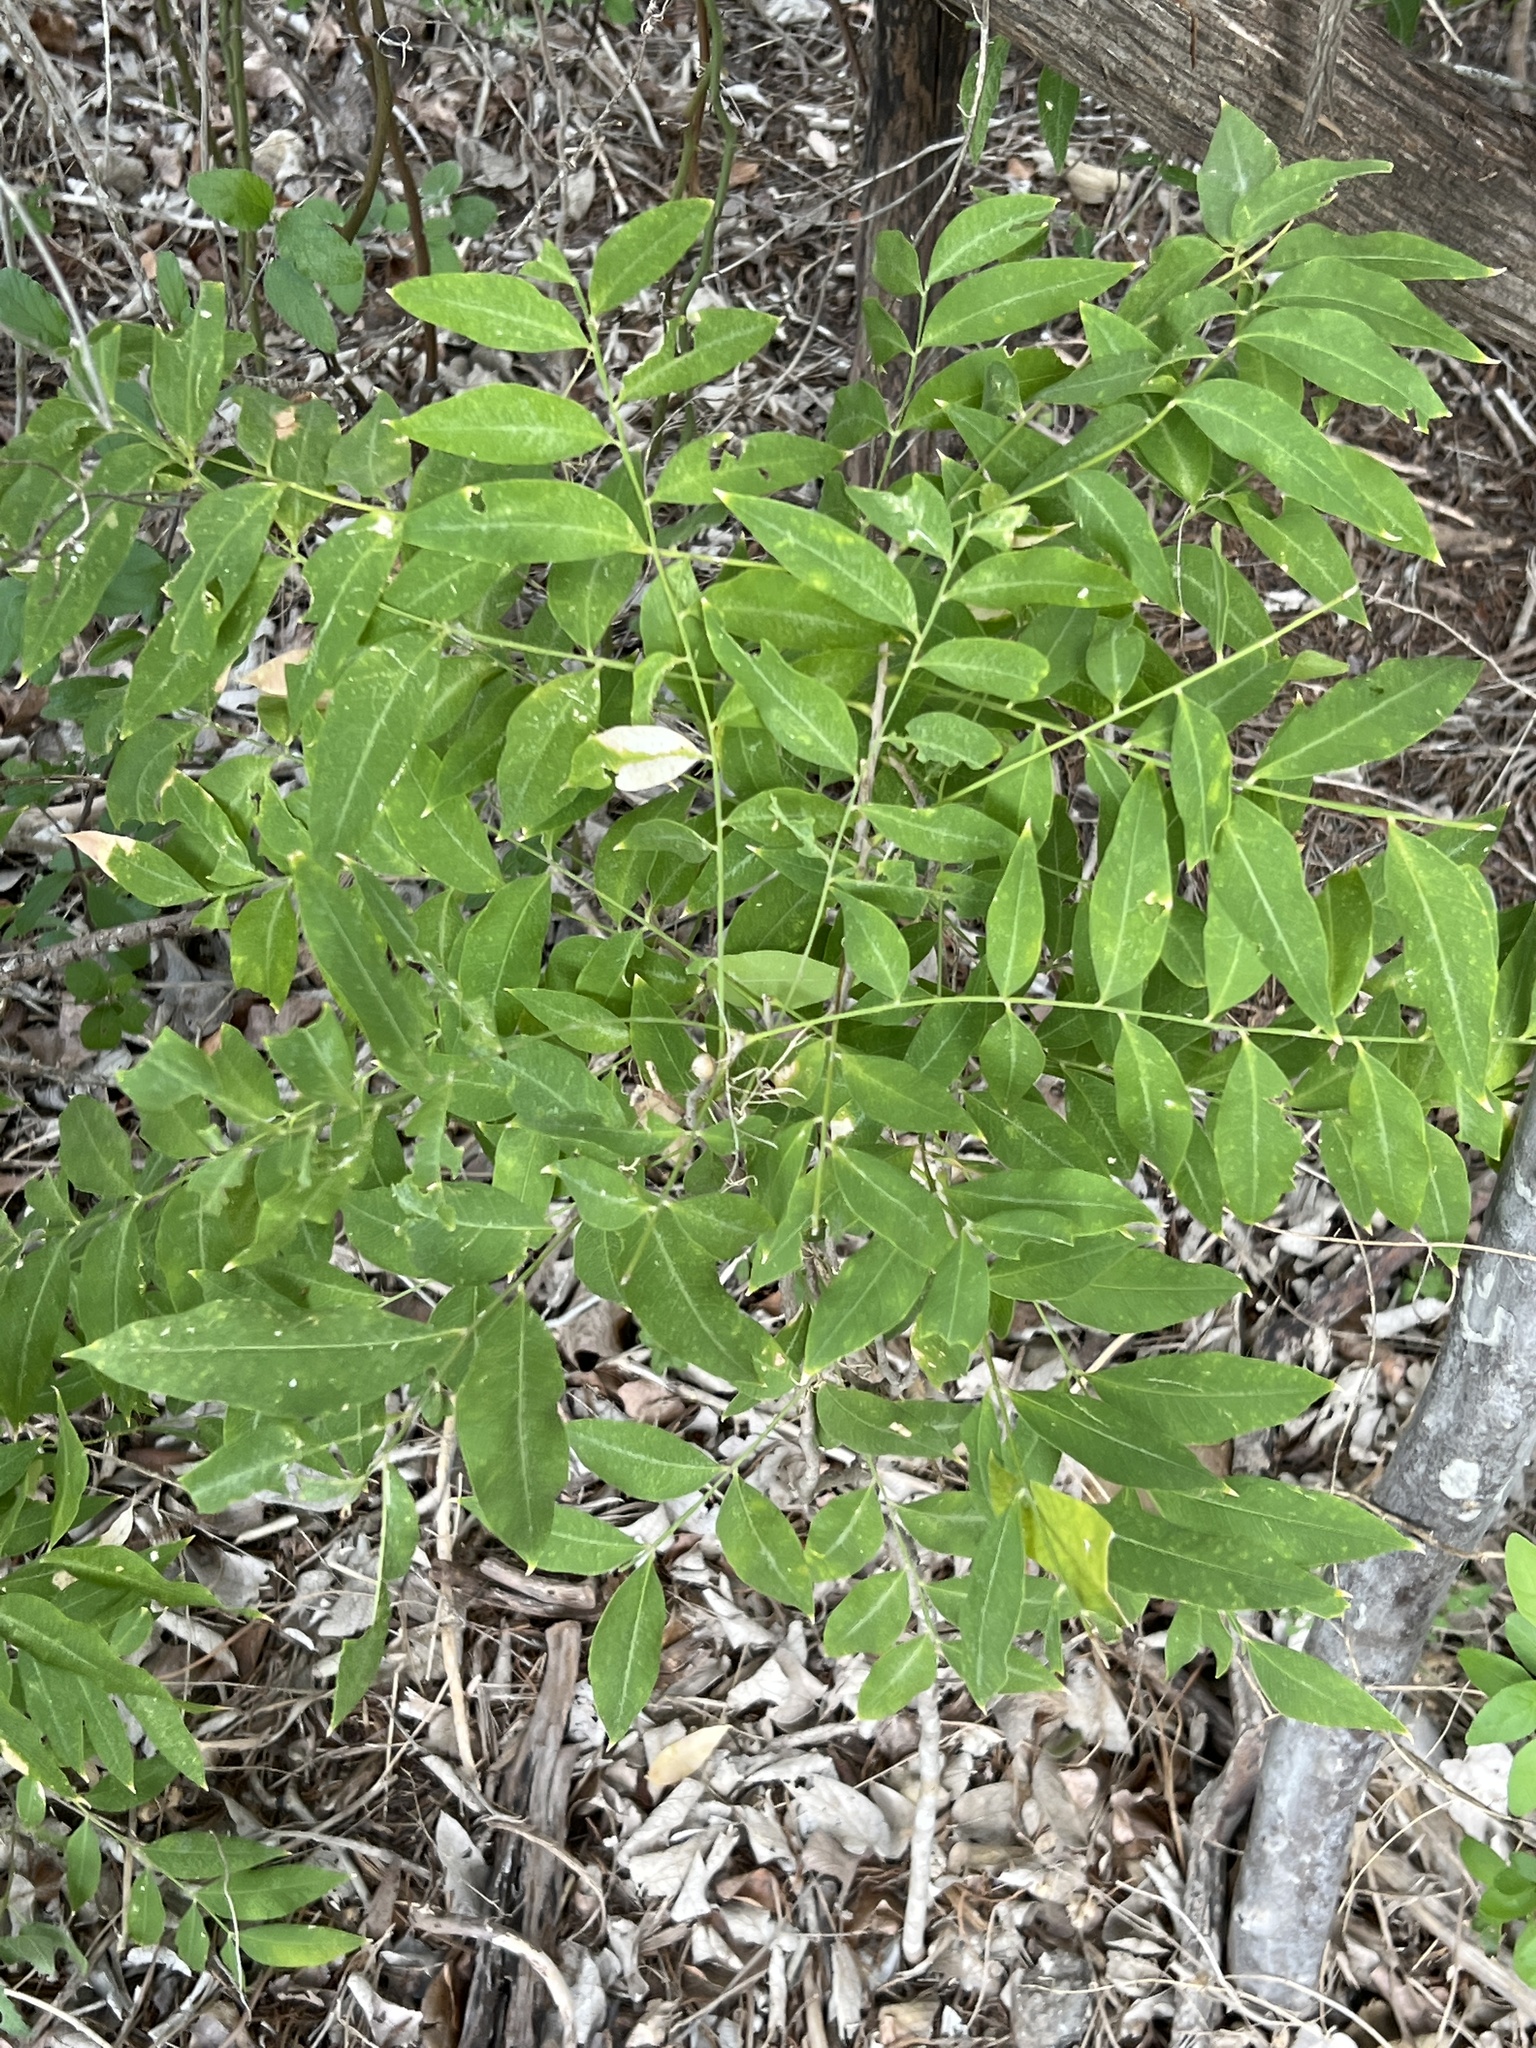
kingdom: Plantae
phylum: Tracheophyta
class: Magnoliopsida
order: Sapindales
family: Sapindaceae
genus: Sapindus
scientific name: Sapindus drummondii
